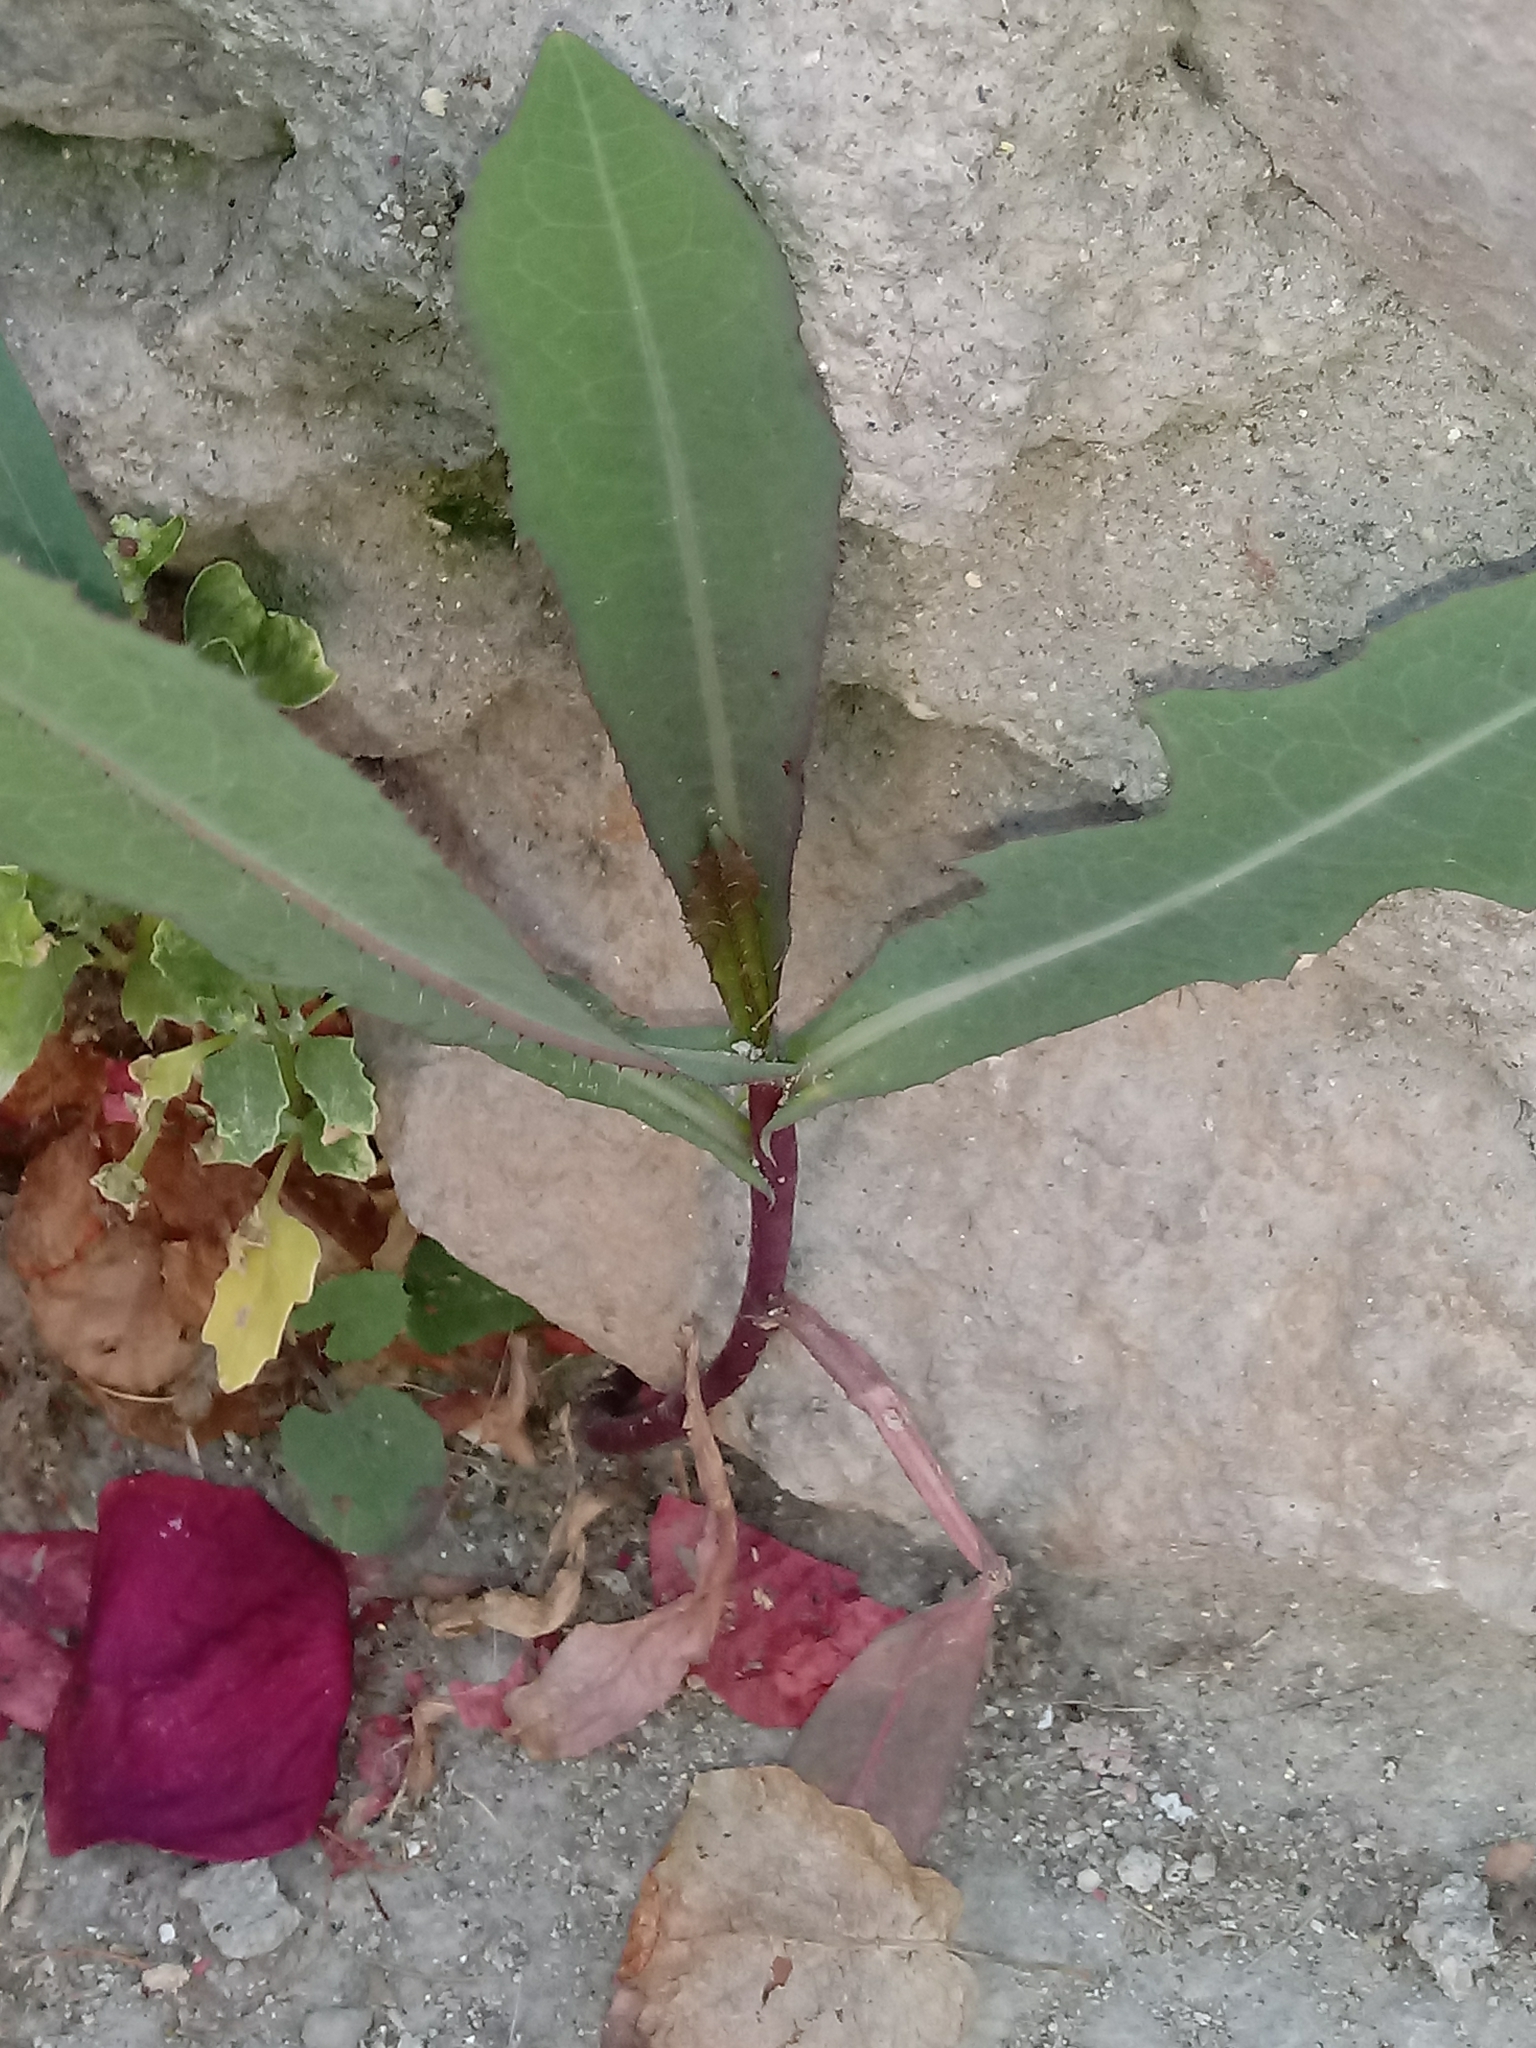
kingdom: Plantae
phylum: Tracheophyta
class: Magnoliopsida
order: Asterales
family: Asteraceae
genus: Lactuca
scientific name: Lactuca serriola
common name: Prickly lettuce
